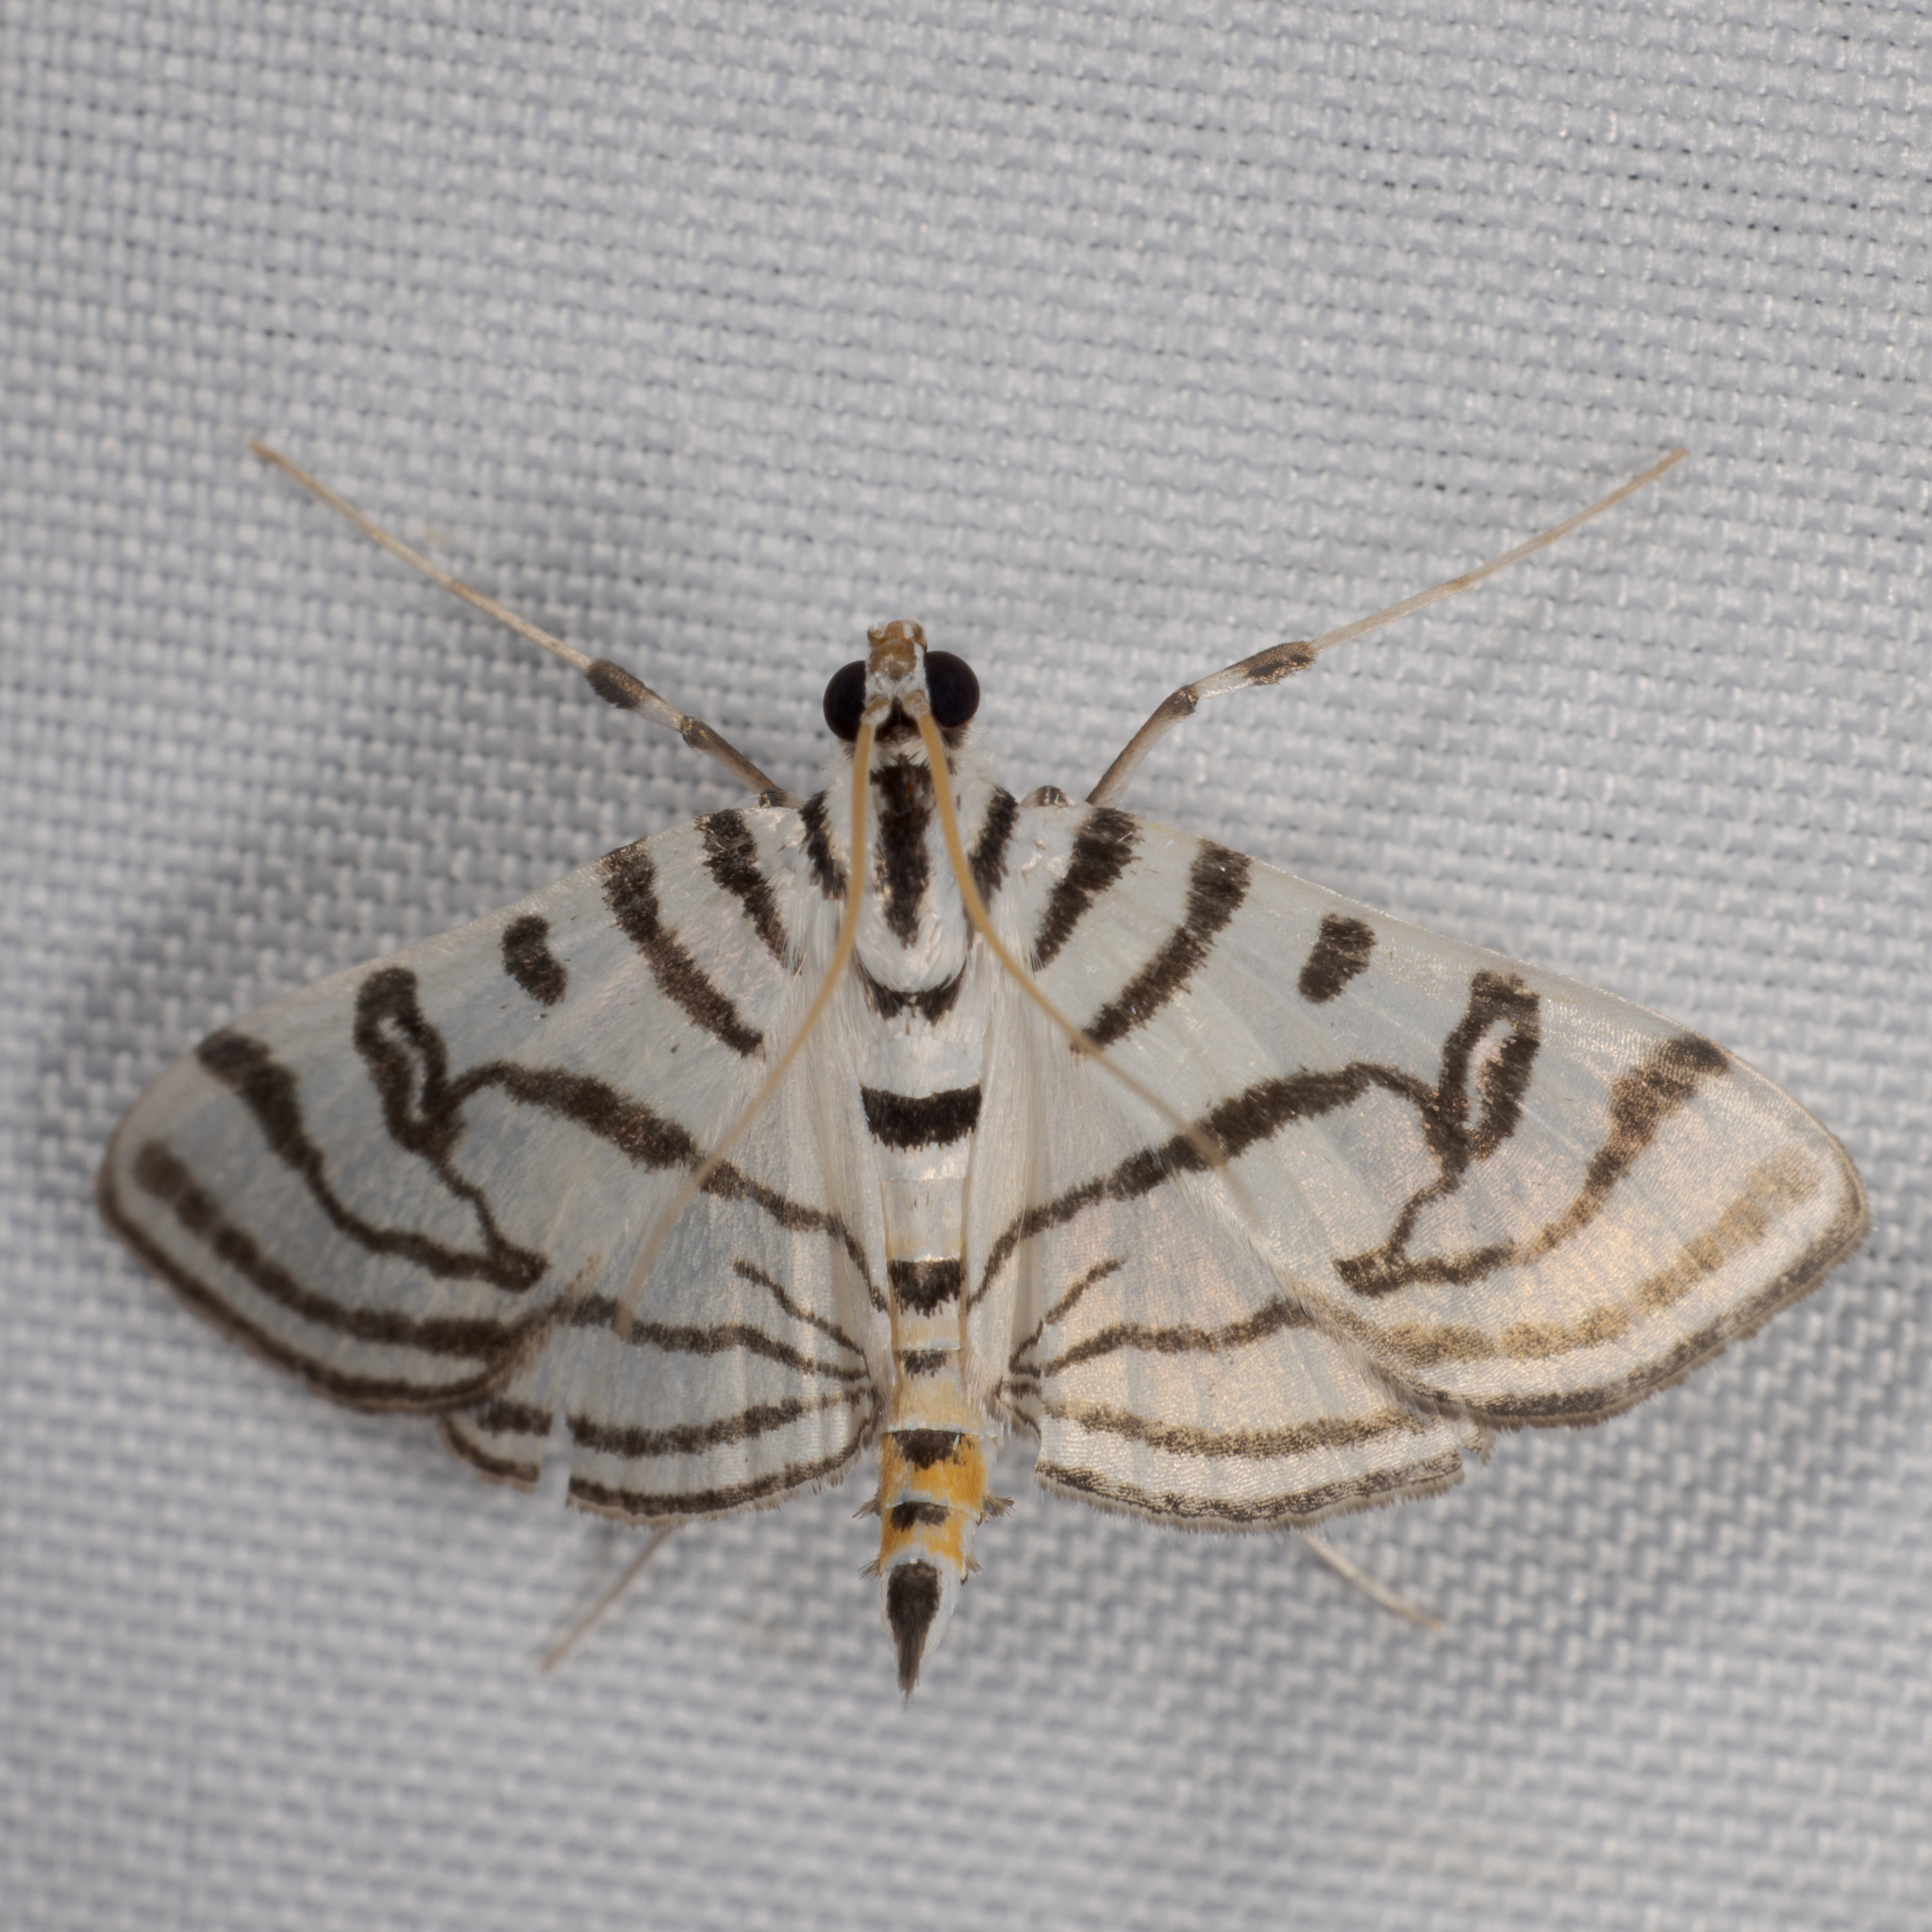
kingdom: Animalia
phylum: Arthropoda
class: Insecta
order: Lepidoptera
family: Crambidae
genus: Conchylodes
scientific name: Conchylodes ovulalis
